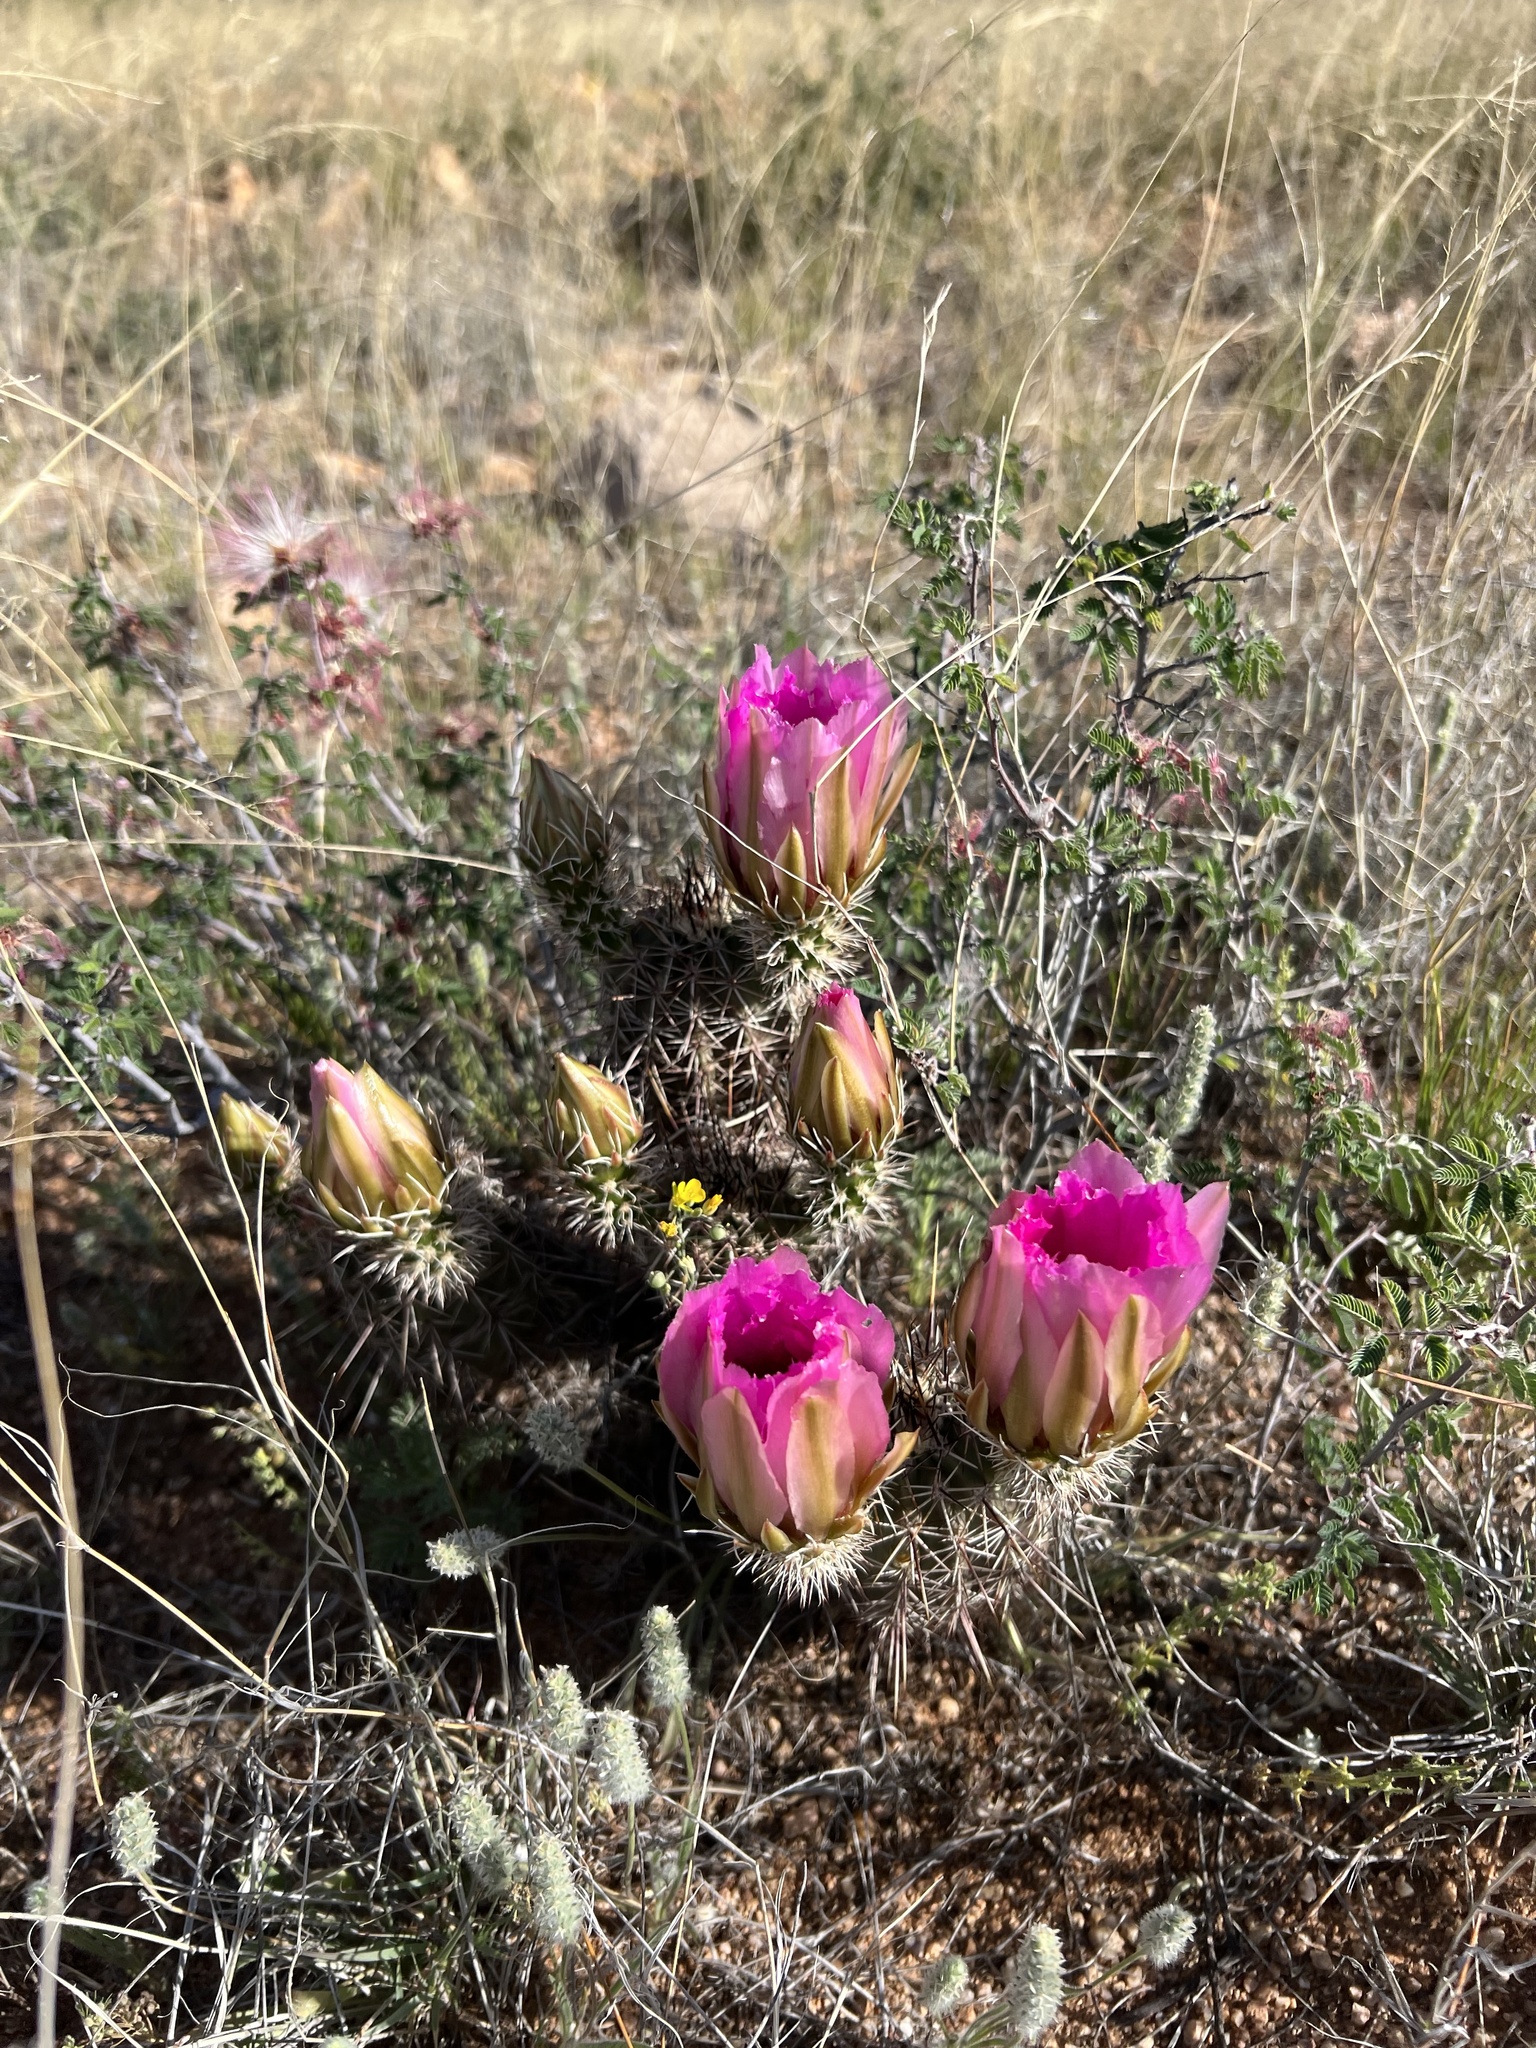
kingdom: Plantae
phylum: Tracheophyta
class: Magnoliopsida
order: Caryophyllales
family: Cactaceae
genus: Echinocereus
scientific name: Echinocereus fasciculatus
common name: Bundle hedgehog
